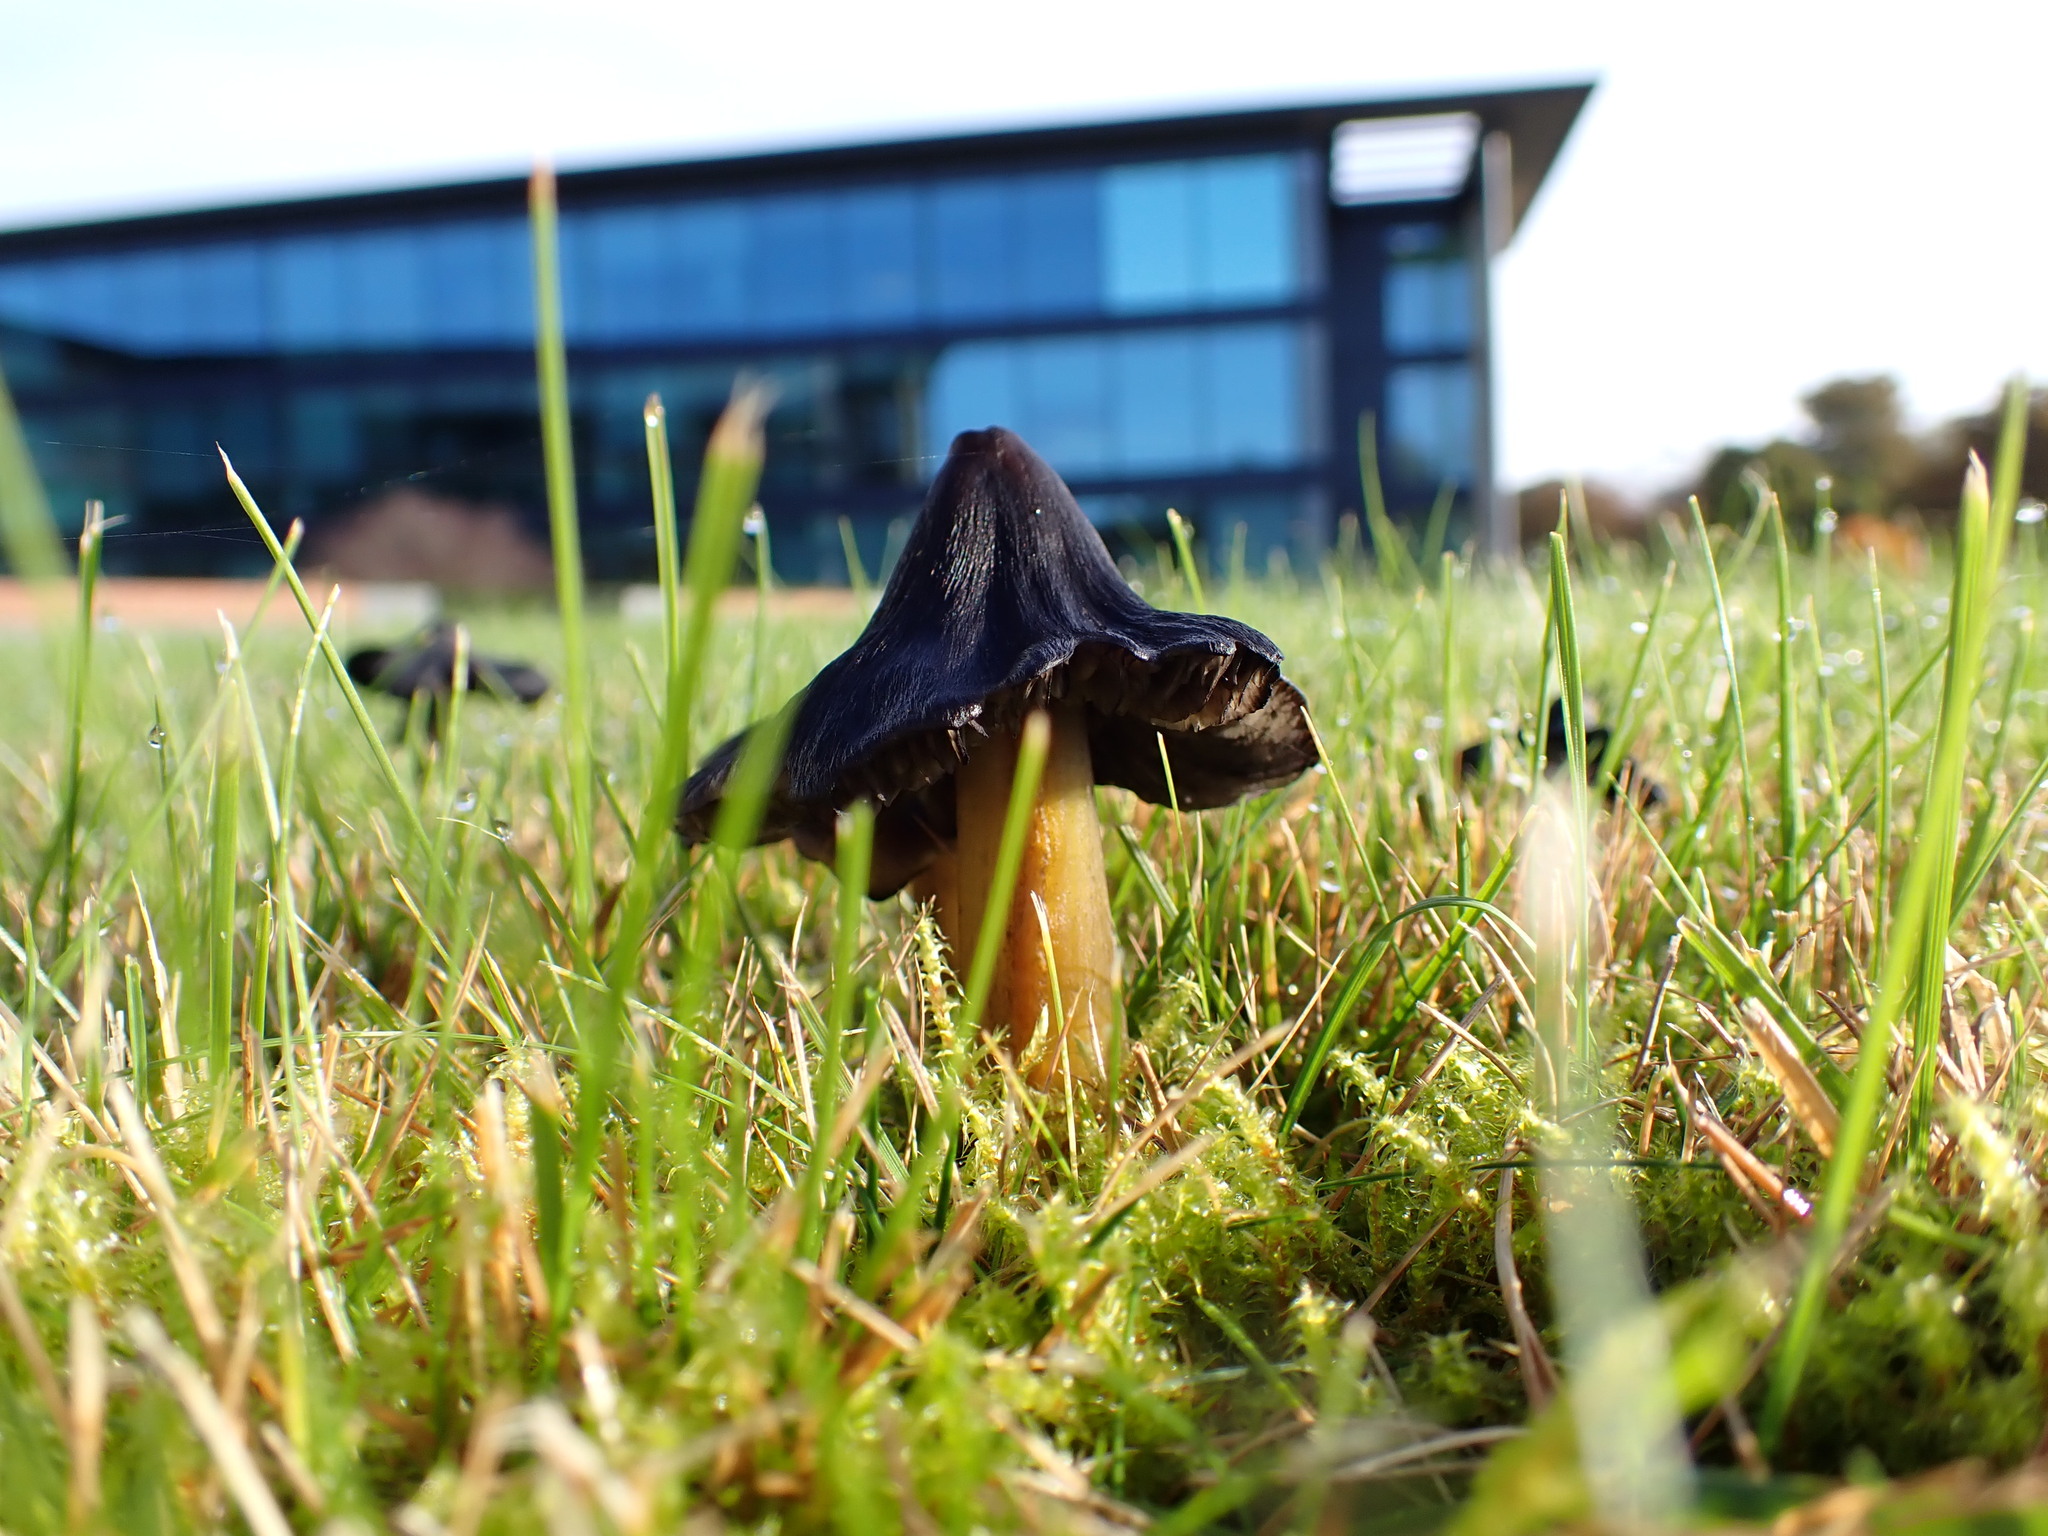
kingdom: Fungi
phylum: Basidiomycota
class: Agaricomycetes
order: Agaricales
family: Hygrophoraceae
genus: Hygrocybe
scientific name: Hygrocybe conica
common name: Blackening wax-cap
